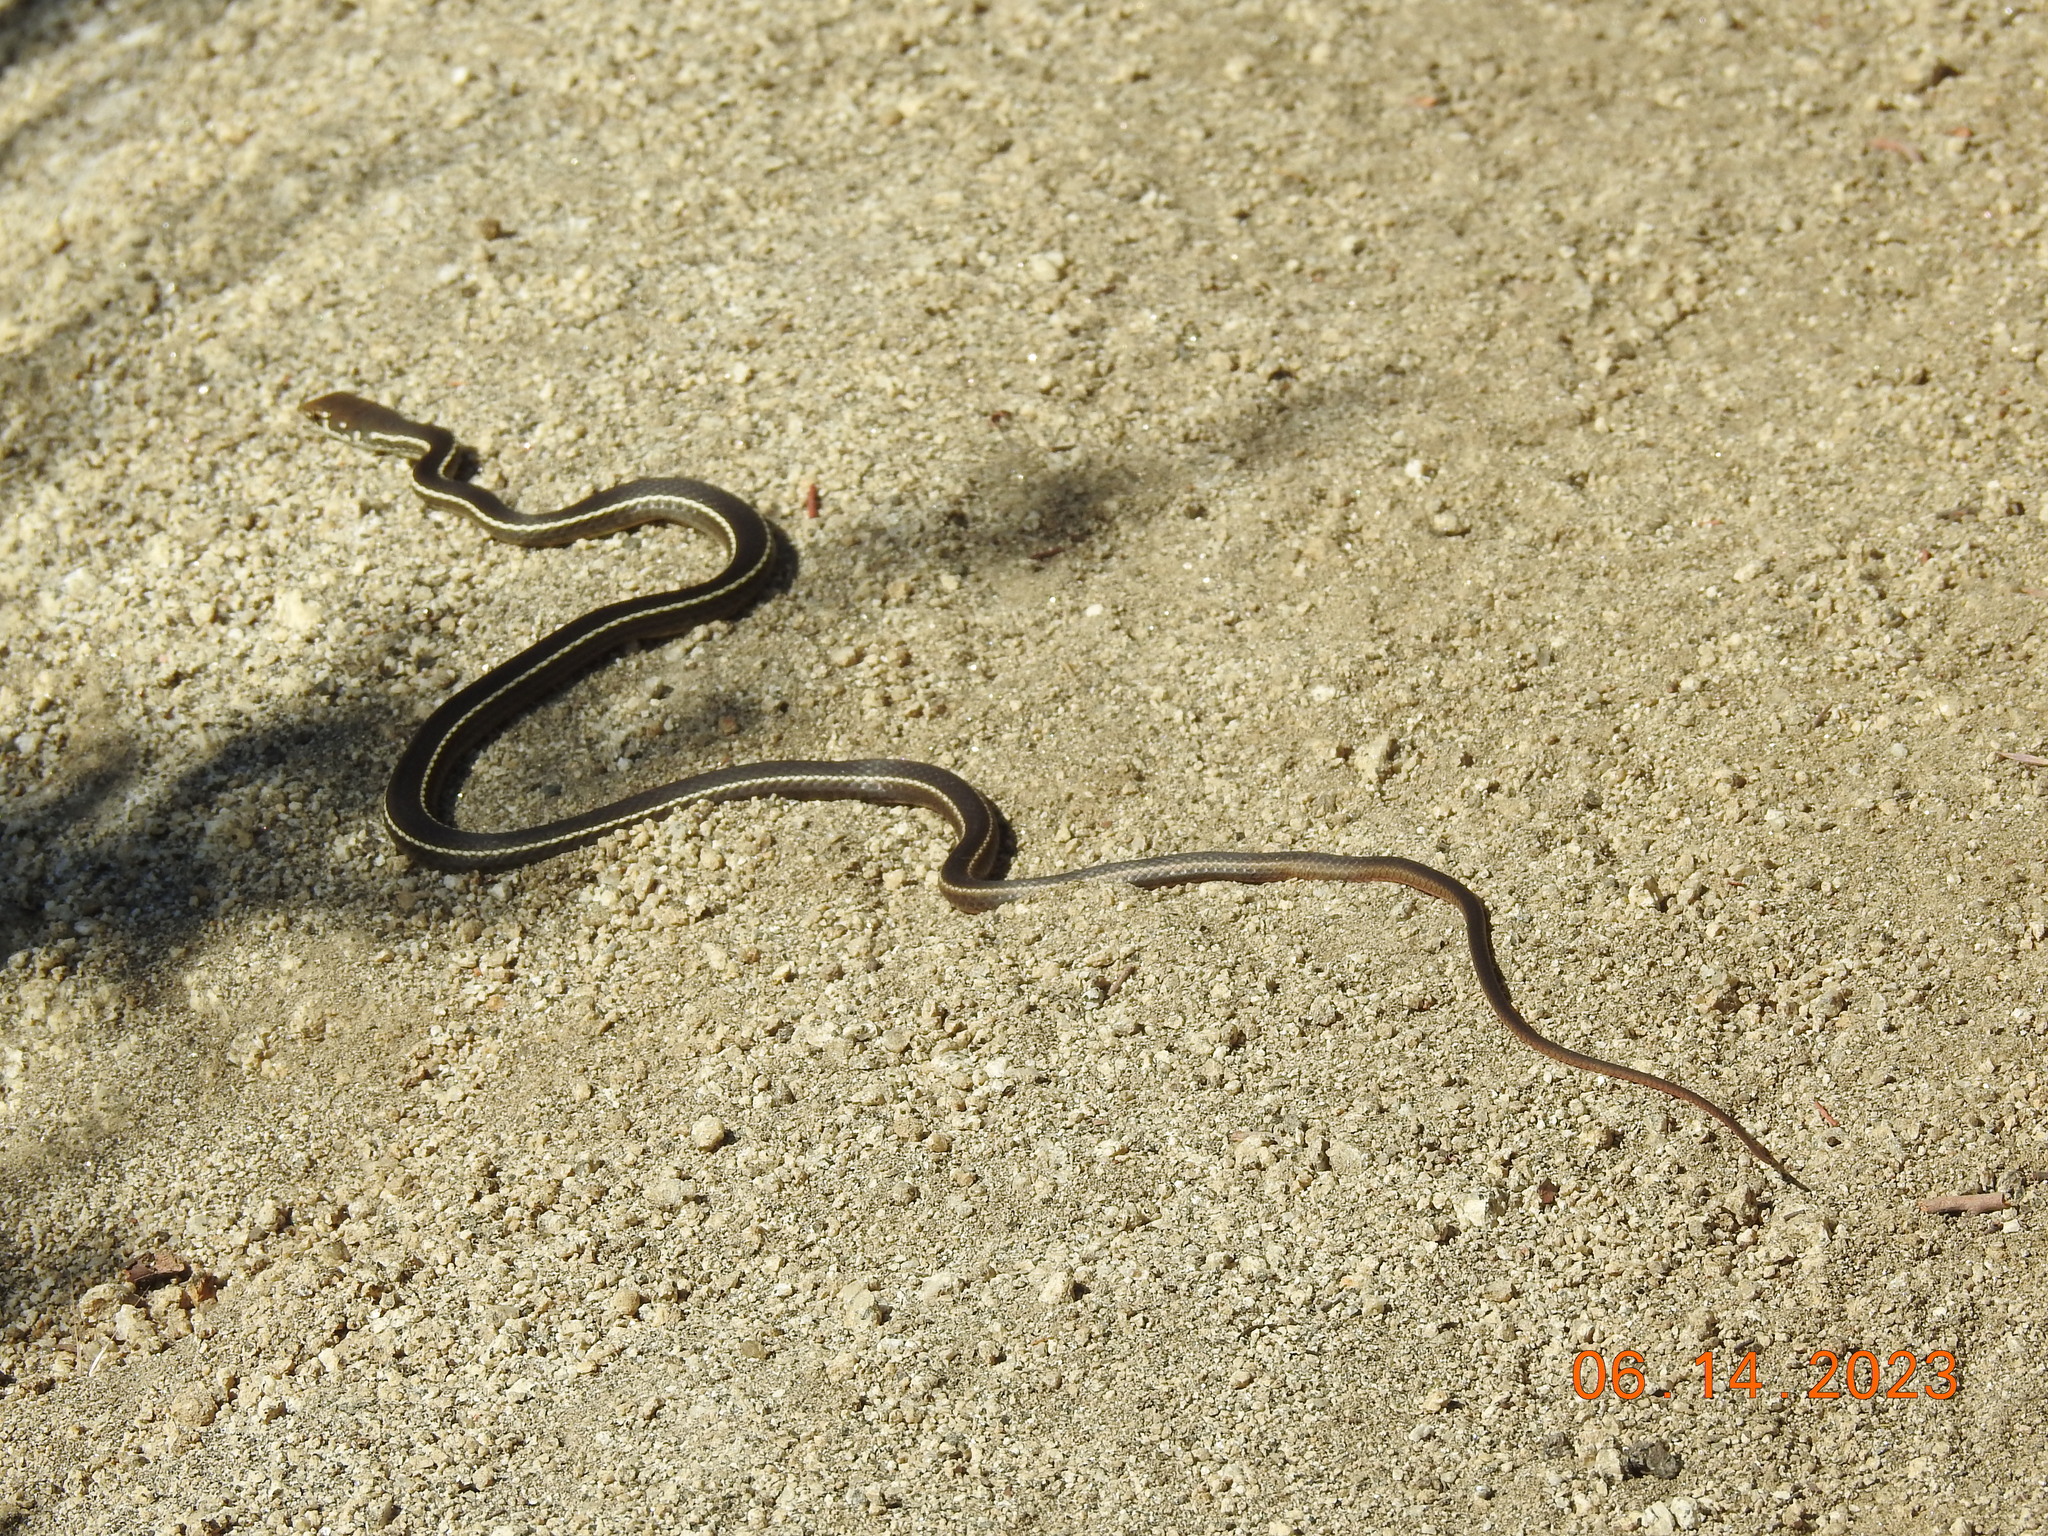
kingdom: Animalia
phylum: Chordata
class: Squamata
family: Colubridae
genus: Masticophis
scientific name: Masticophis lateralis
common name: Striped racer
